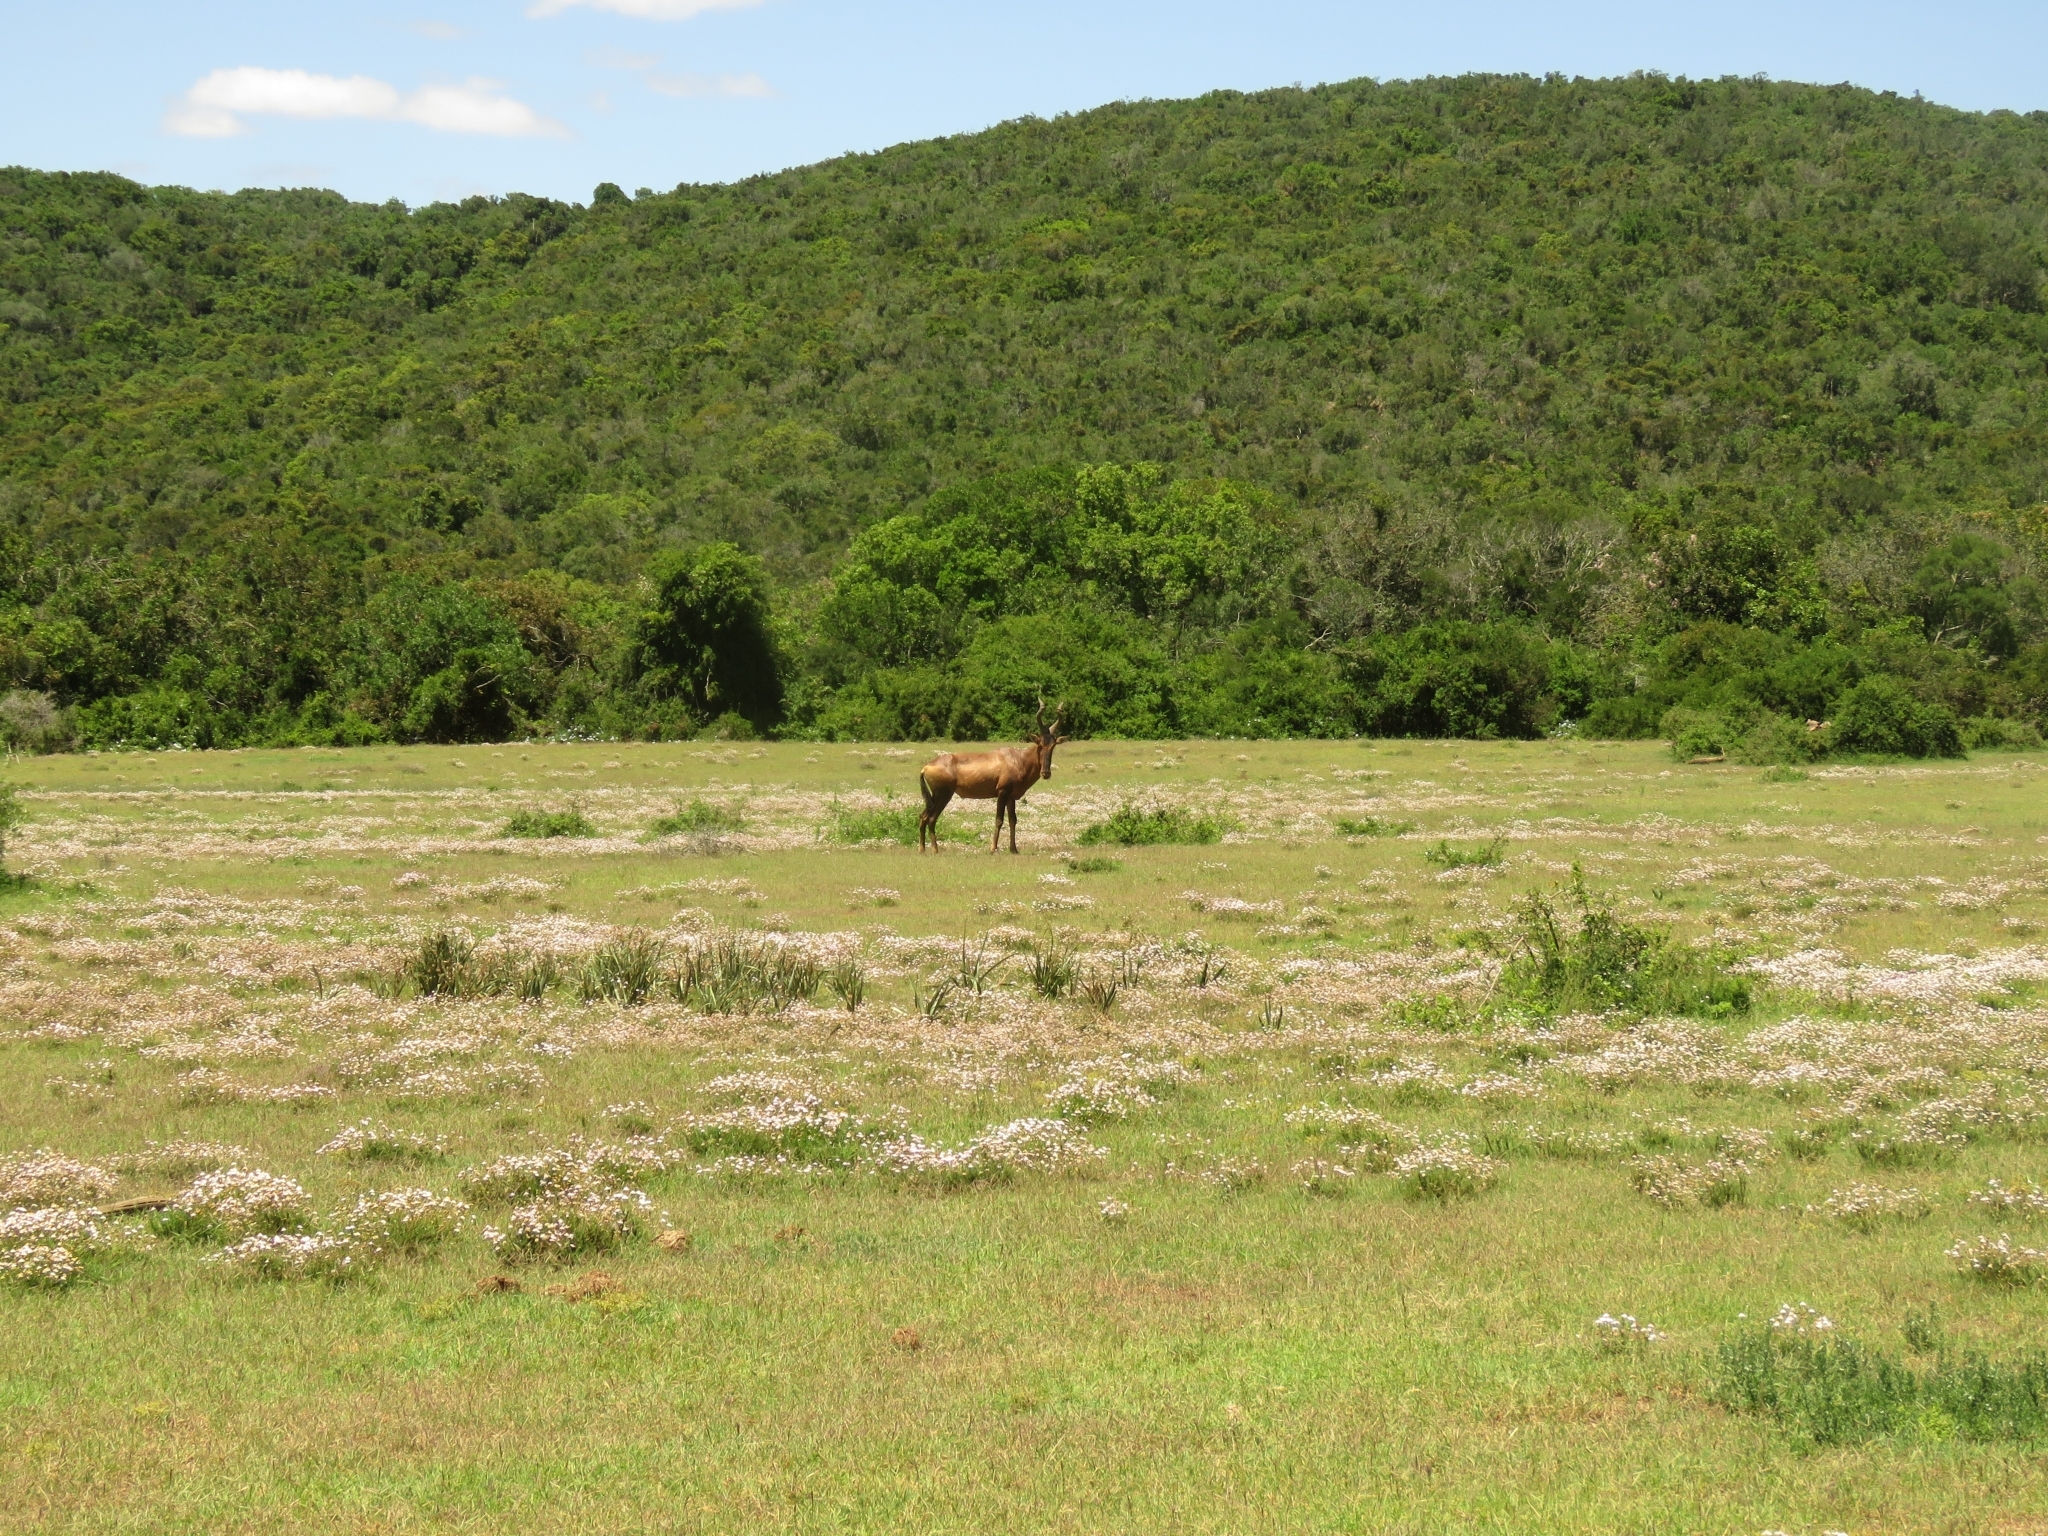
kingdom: Animalia
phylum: Chordata
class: Mammalia
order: Artiodactyla
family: Bovidae
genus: Alcelaphus
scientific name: Alcelaphus caama
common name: Red hartebeest
